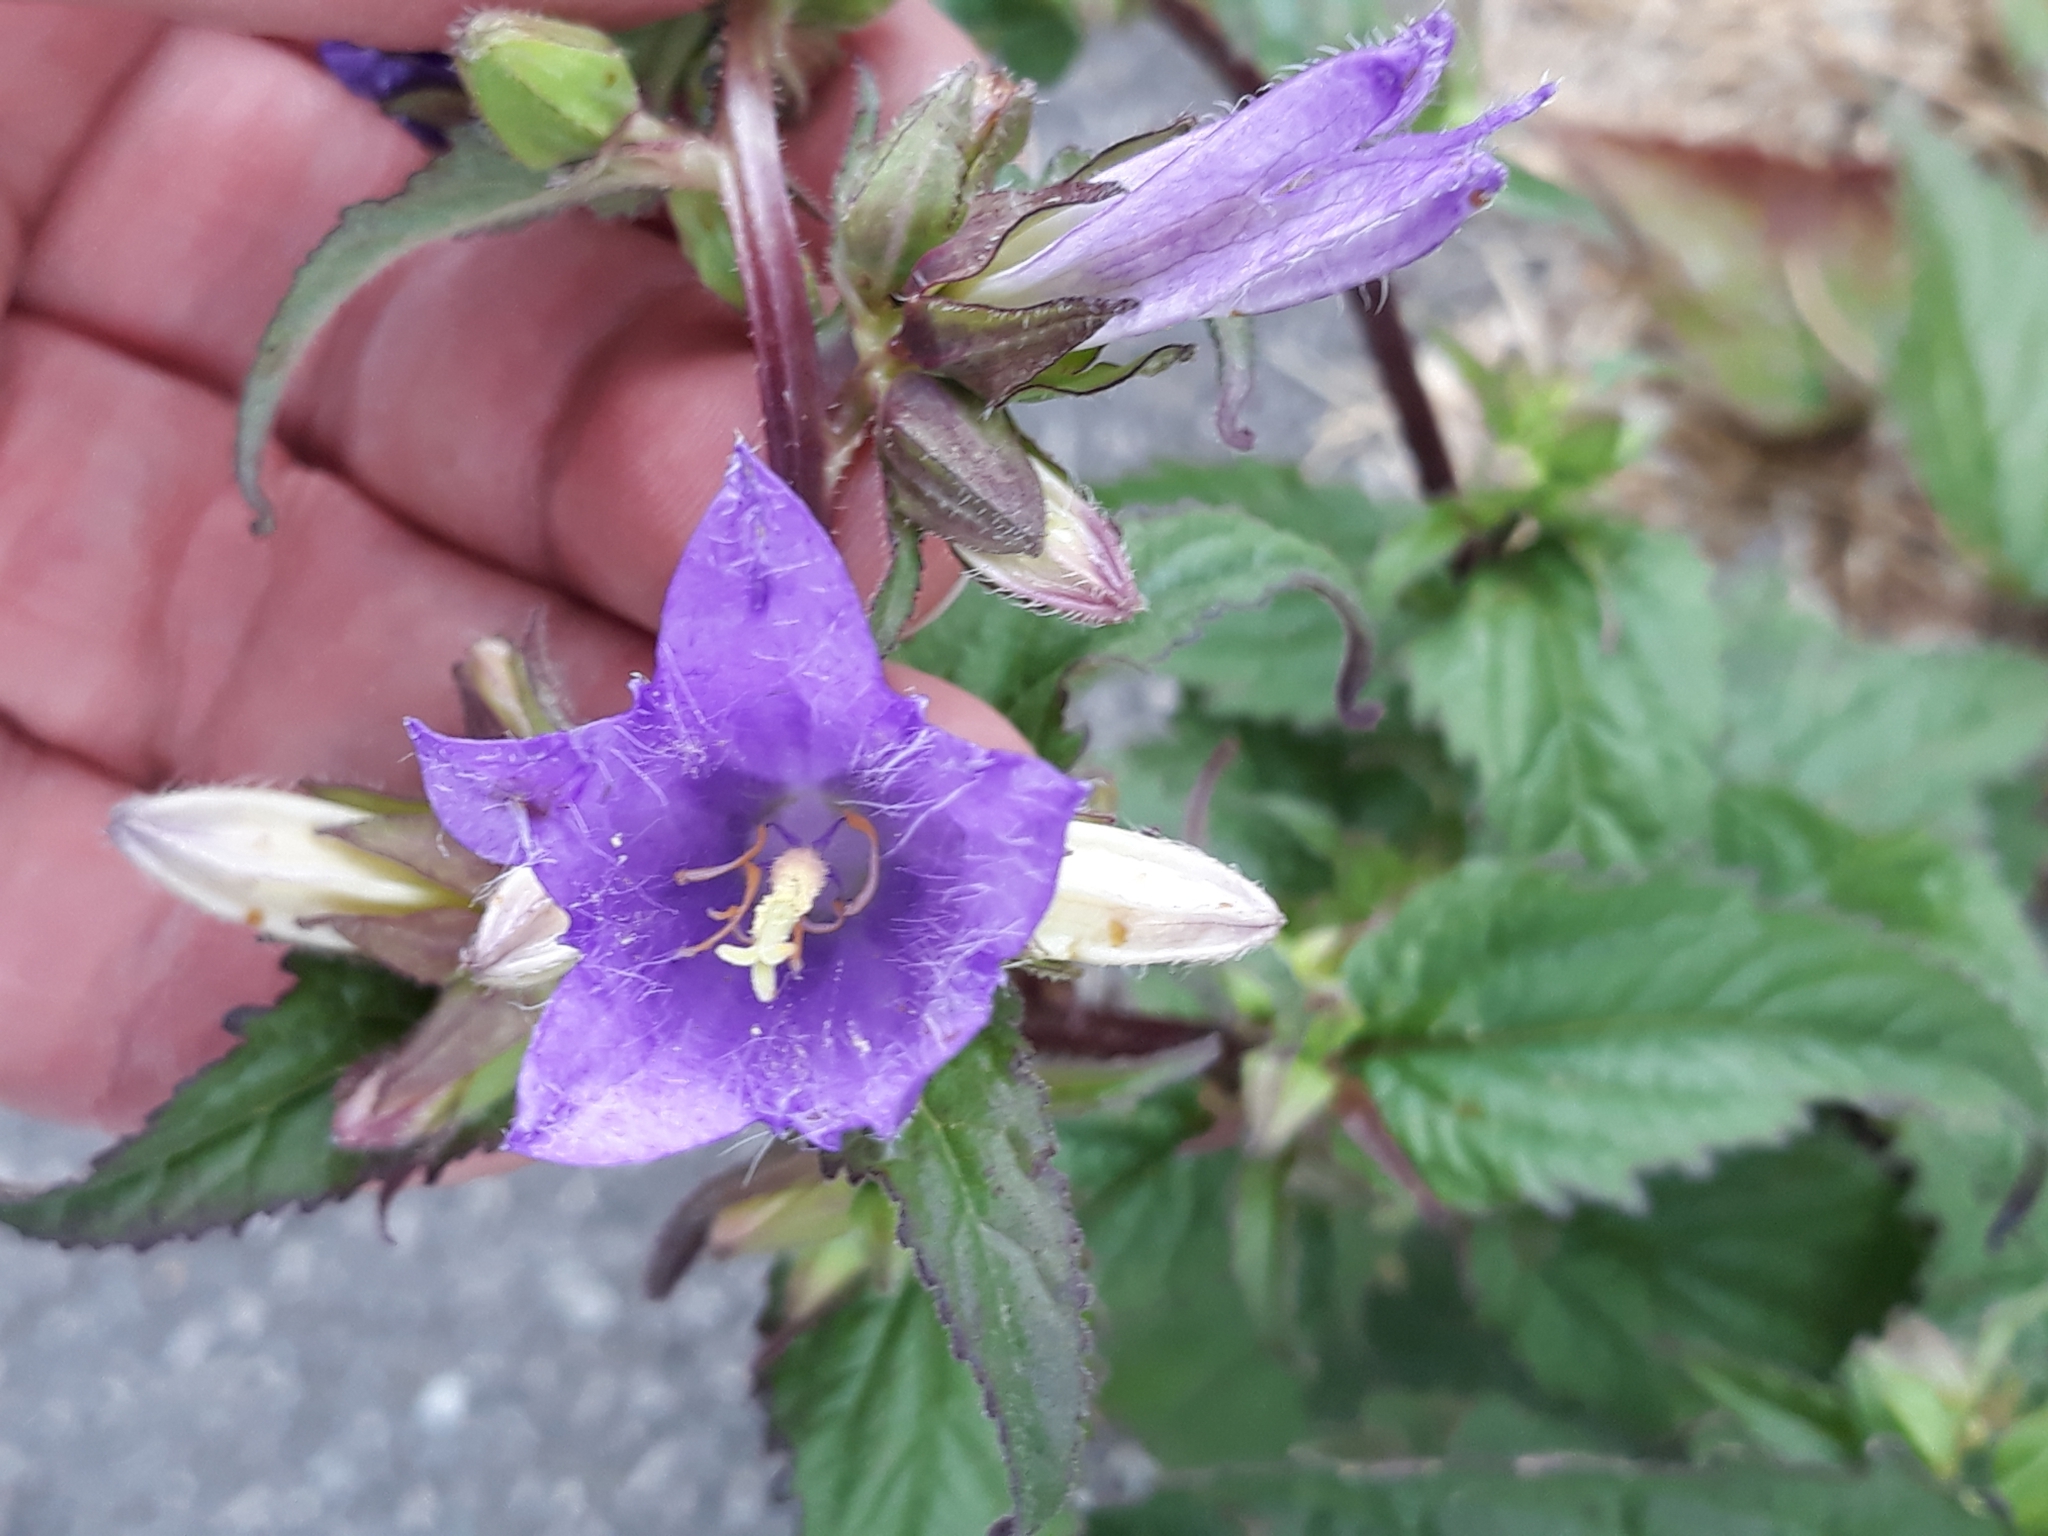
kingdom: Plantae
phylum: Tracheophyta
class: Magnoliopsida
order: Asterales
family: Campanulaceae
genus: Campanula
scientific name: Campanula trachelium
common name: Nettle-leaved bellflower
